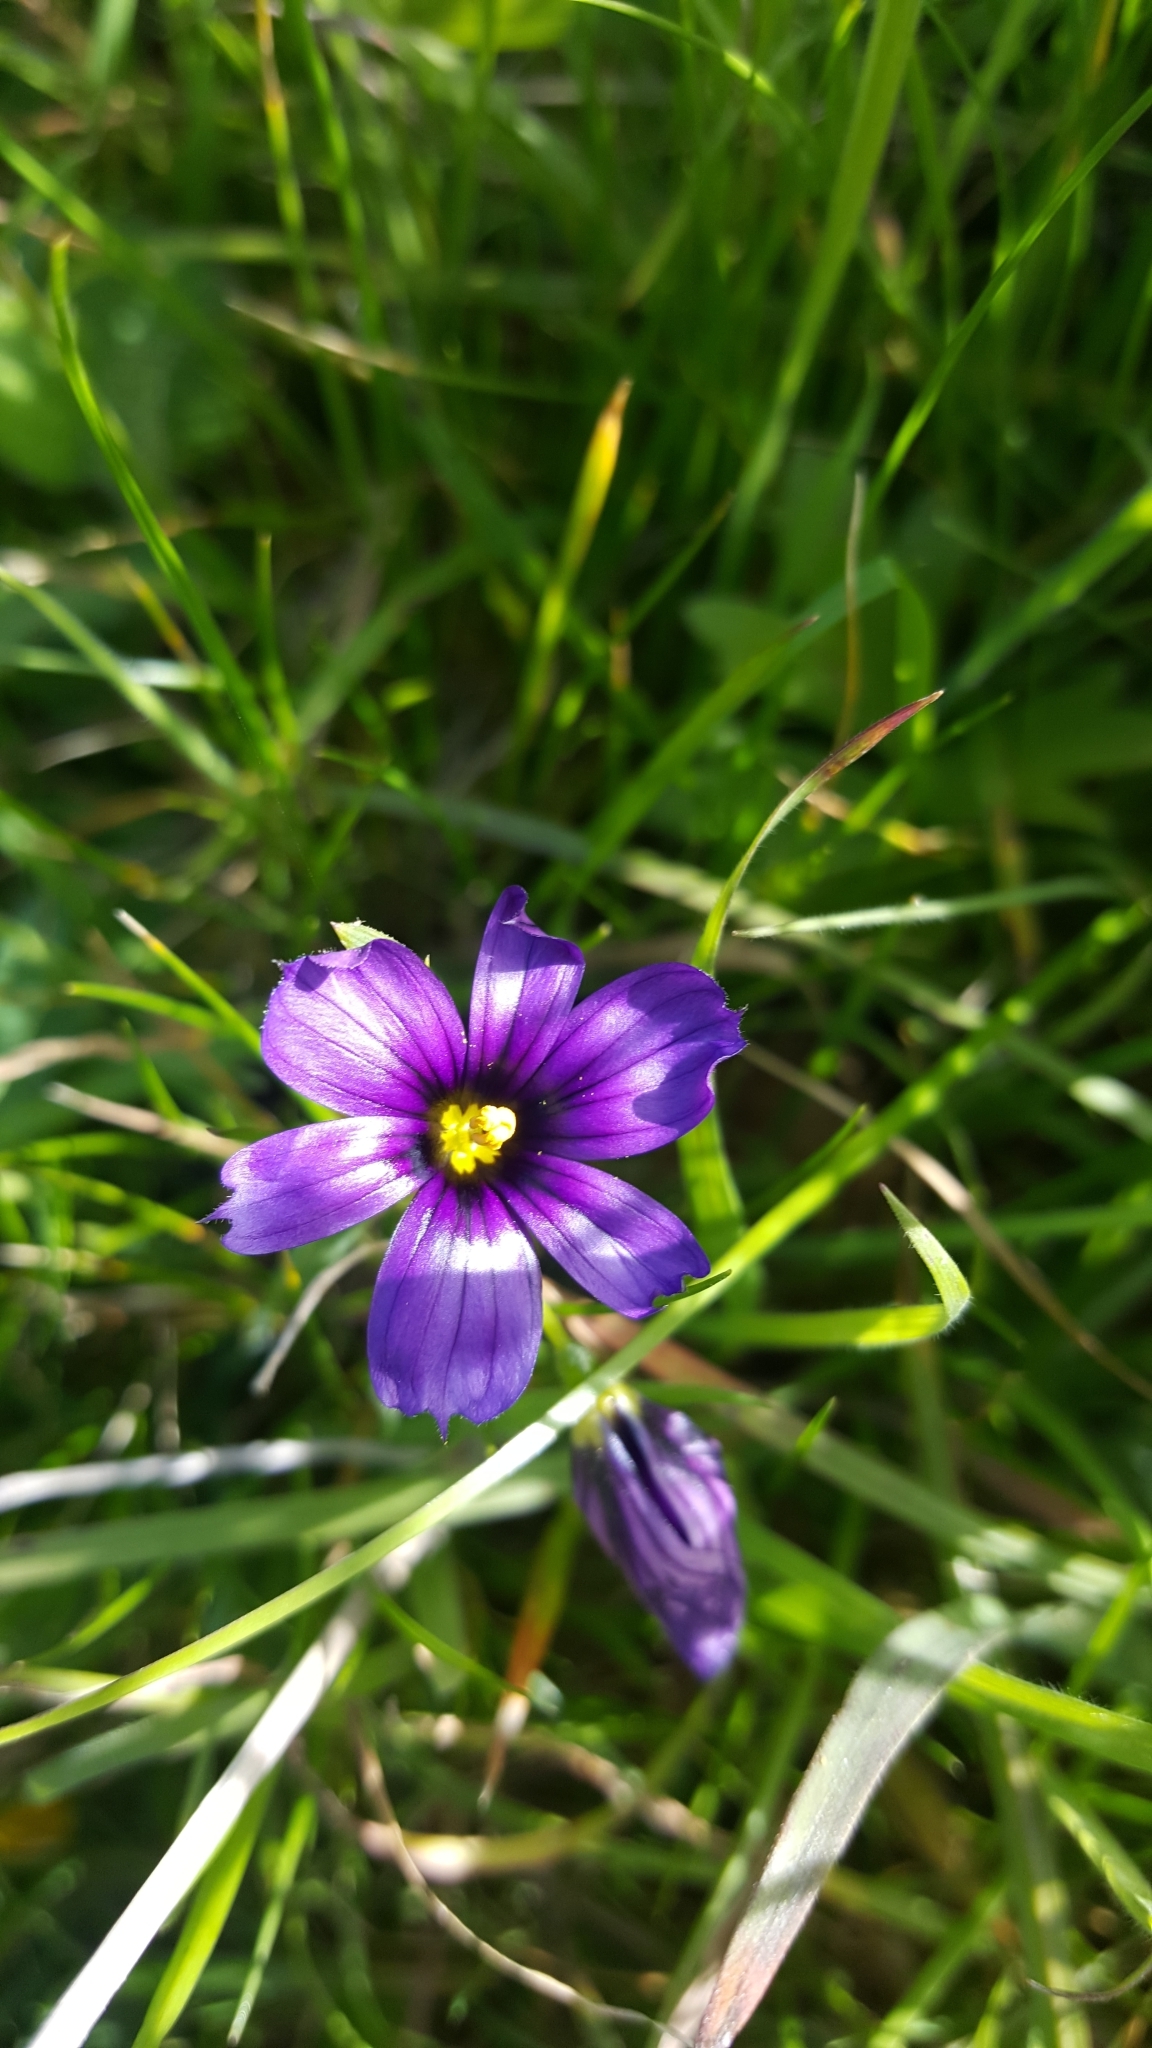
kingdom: Plantae
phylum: Tracheophyta
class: Liliopsida
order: Asparagales
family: Iridaceae
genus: Sisyrinchium
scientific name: Sisyrinchium bellum
